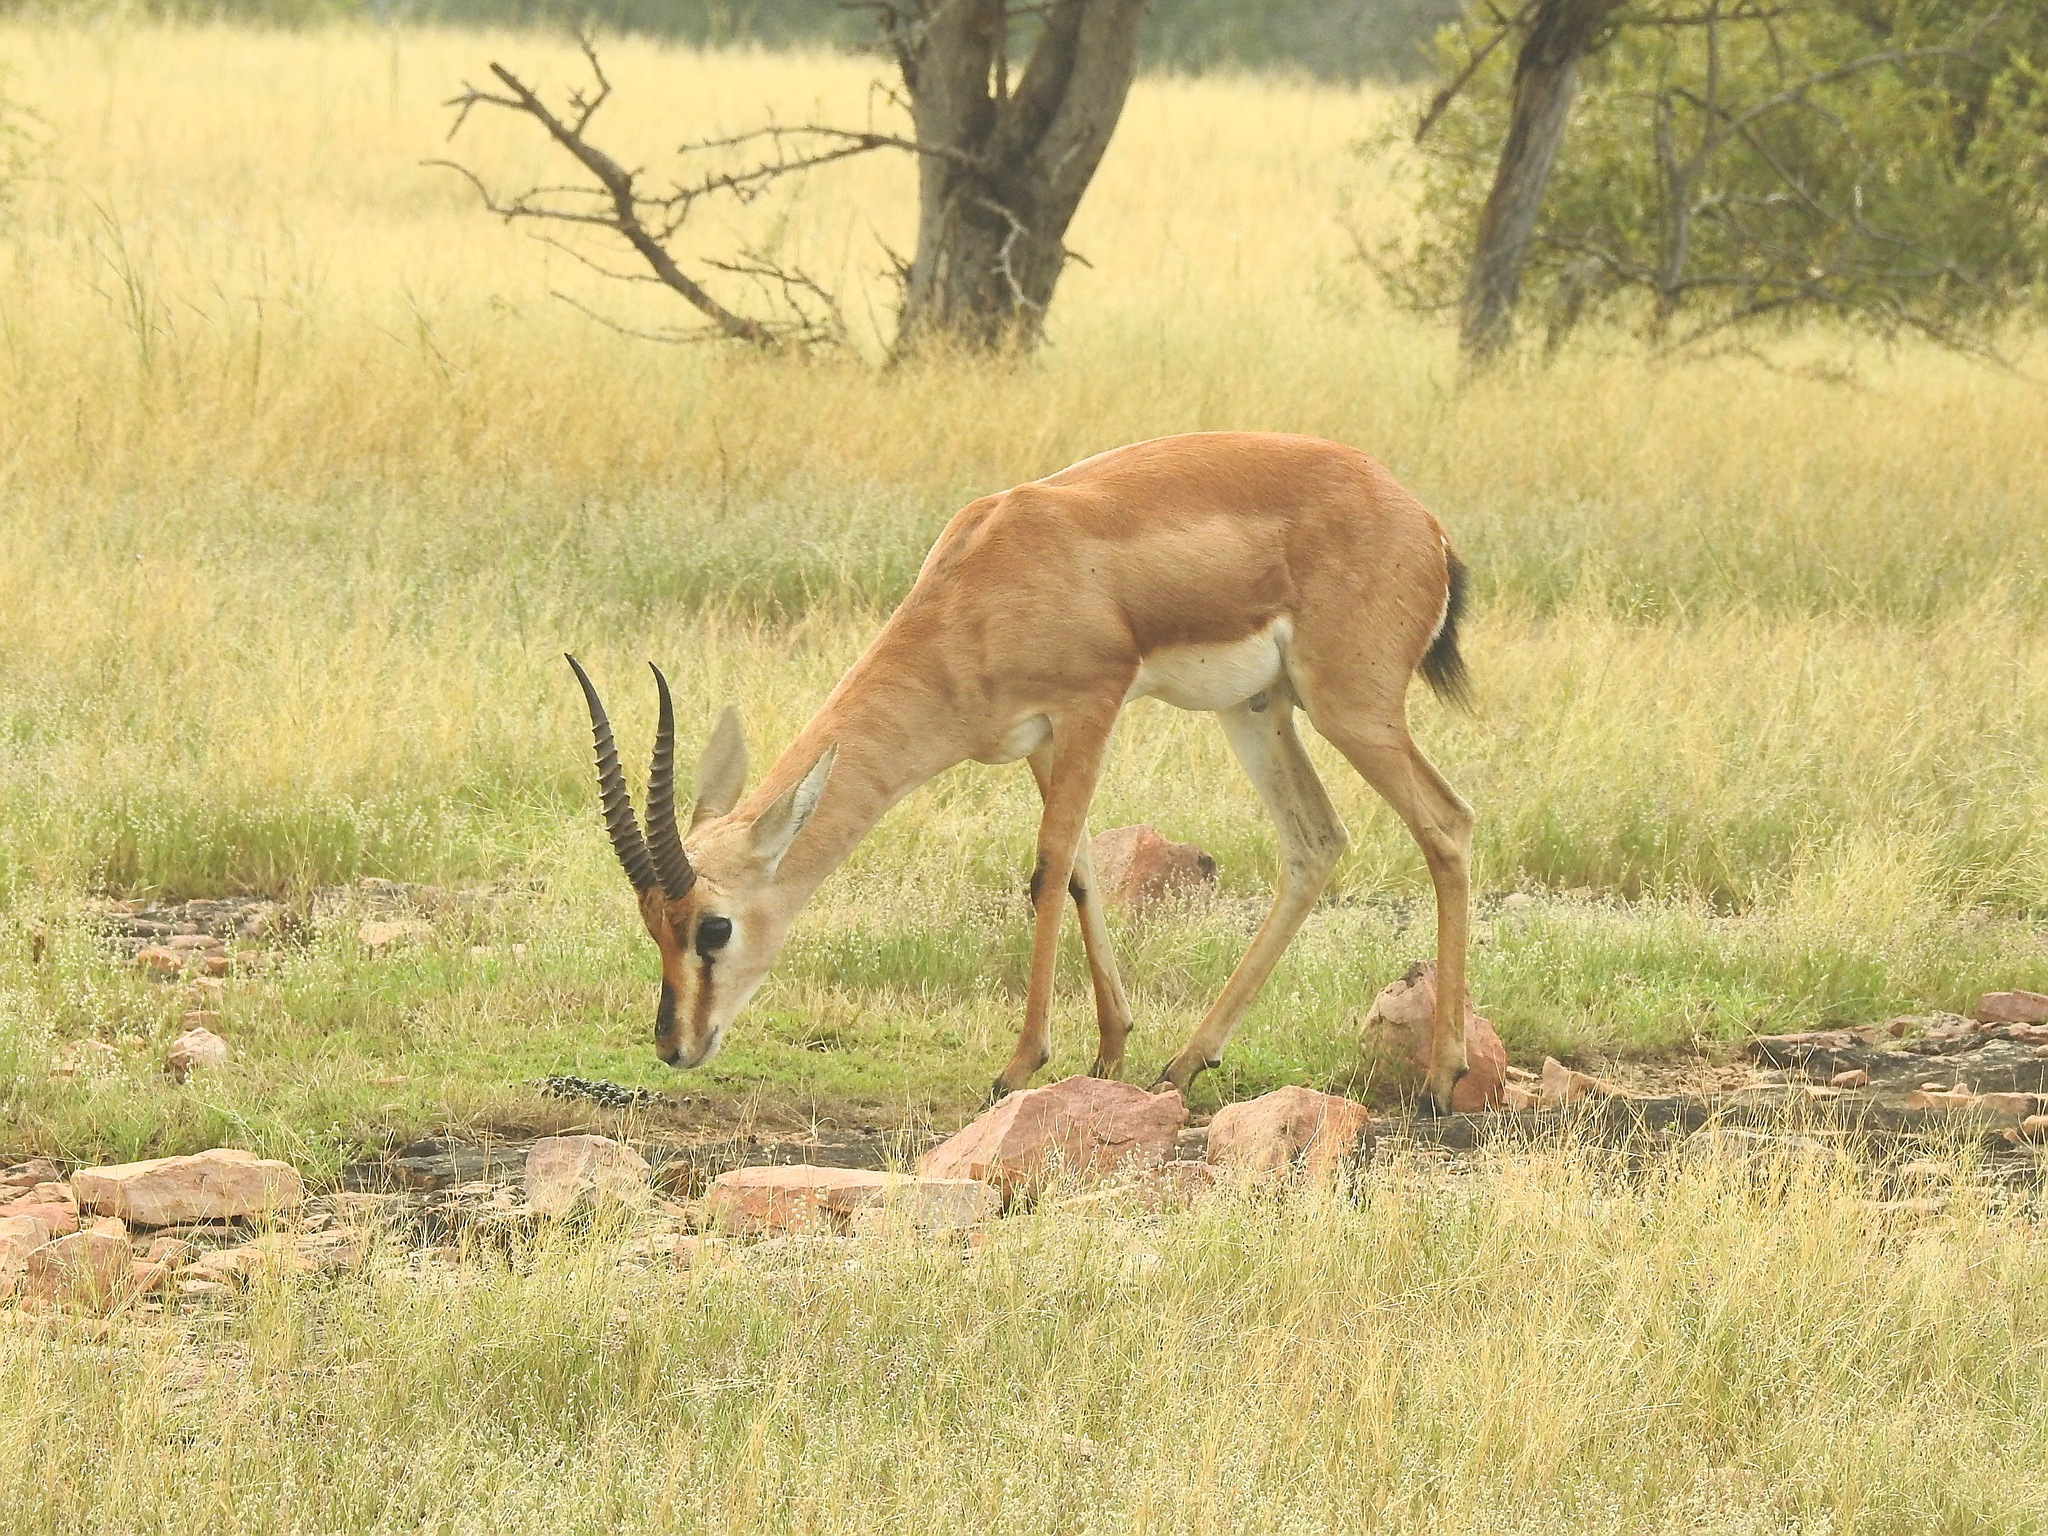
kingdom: Animalia
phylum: Chordata
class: Mammalia
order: Artiodactyla
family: Bovidae
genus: Gazella
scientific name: Gazella bennettii
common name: Indian gazelle
